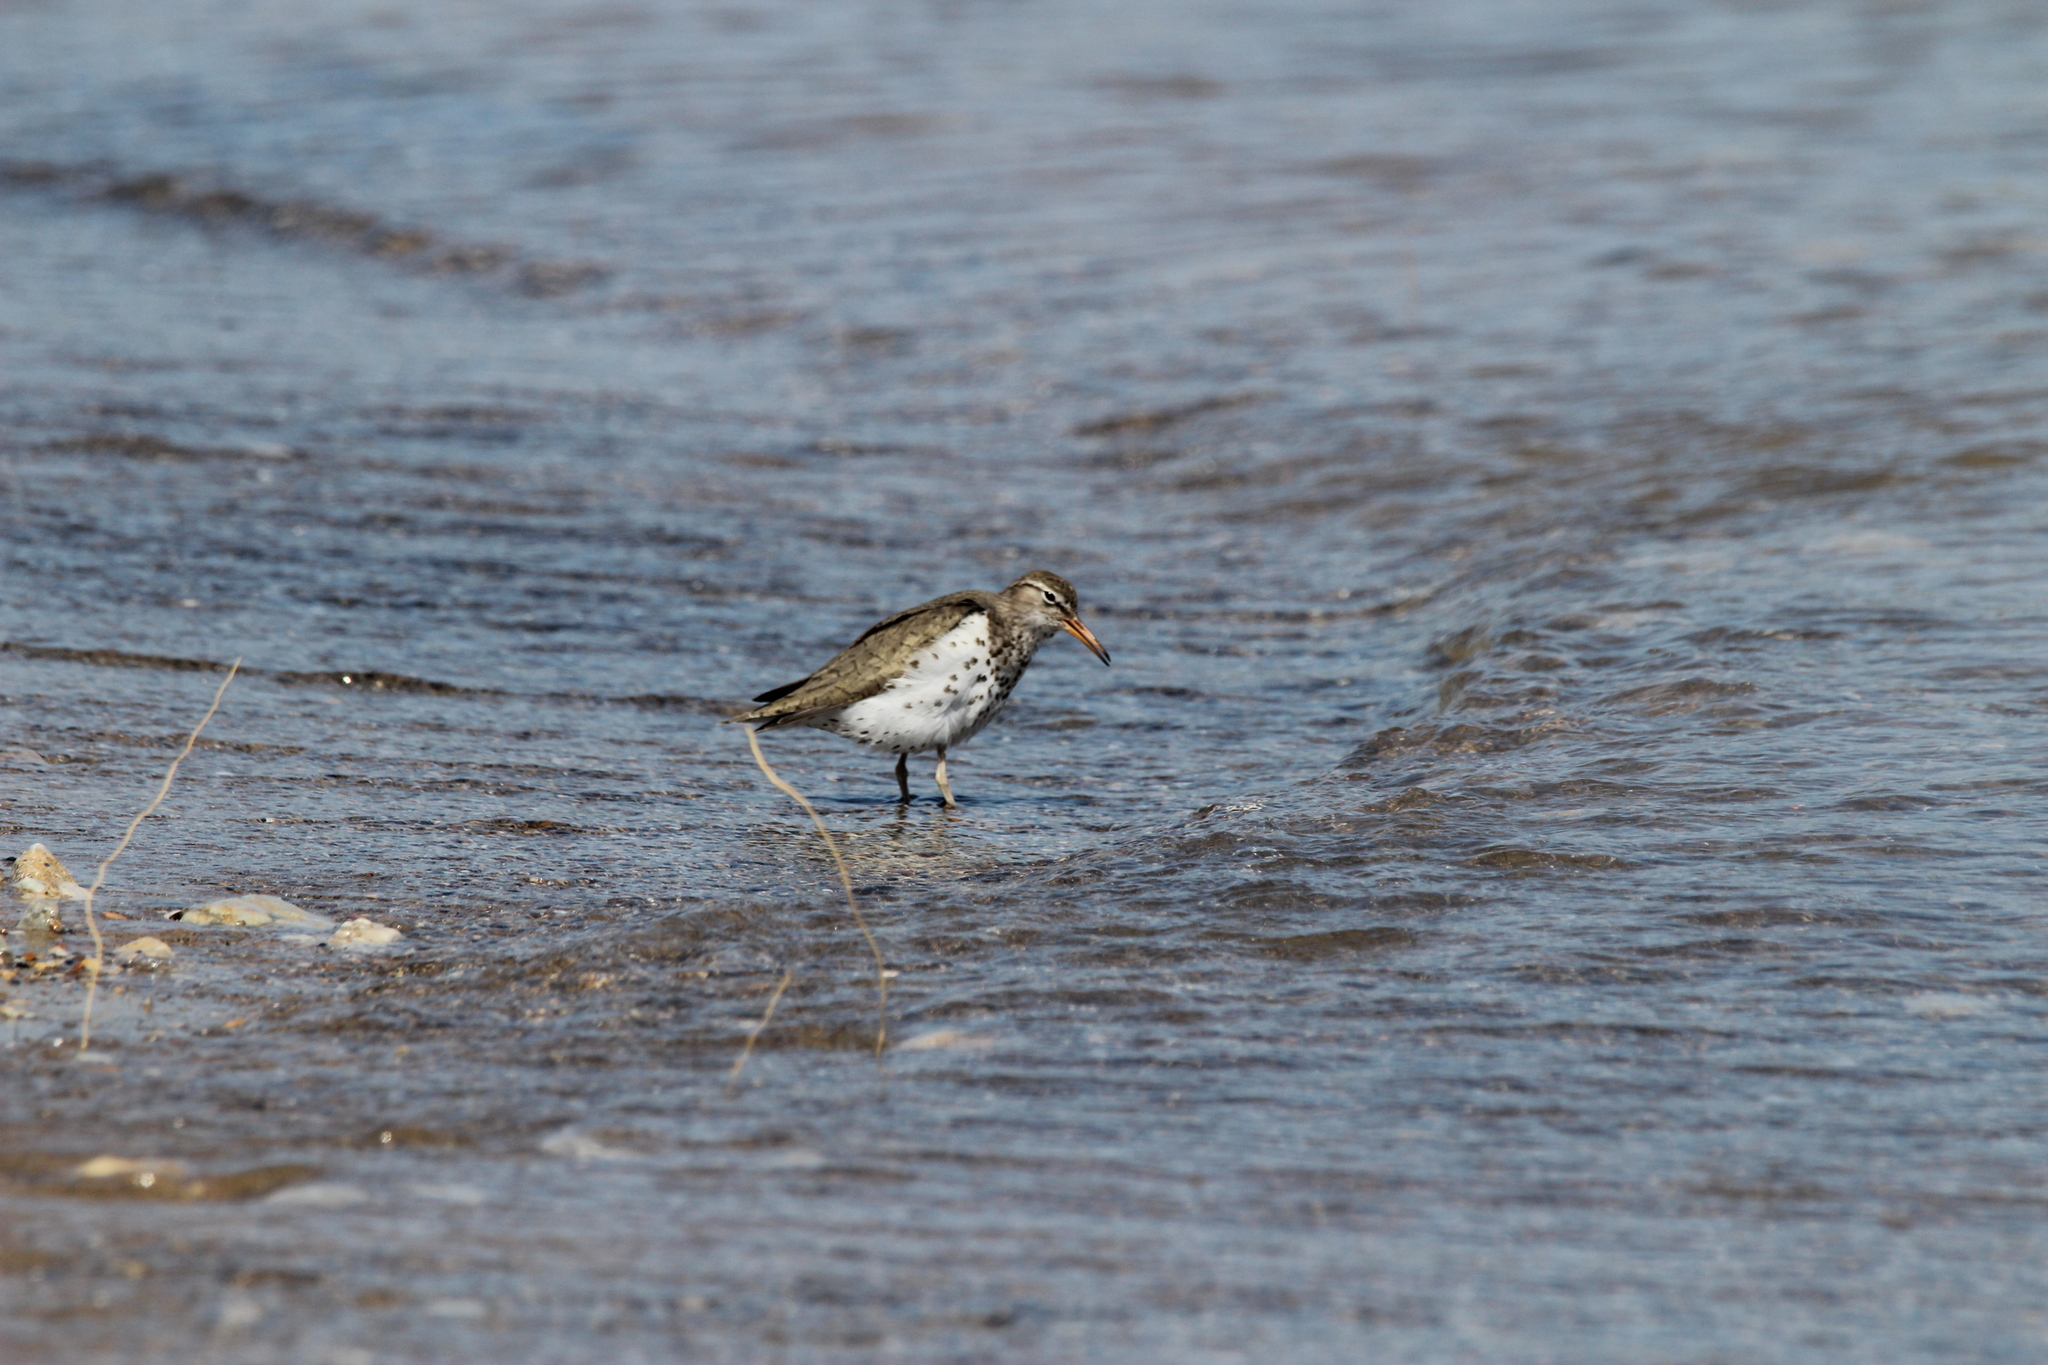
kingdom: Animalia
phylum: Chordata
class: Aves
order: Charadriiformes
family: Scolopacidae
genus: Actitis
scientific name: Actitis macularius
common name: Spotted sandpiper
